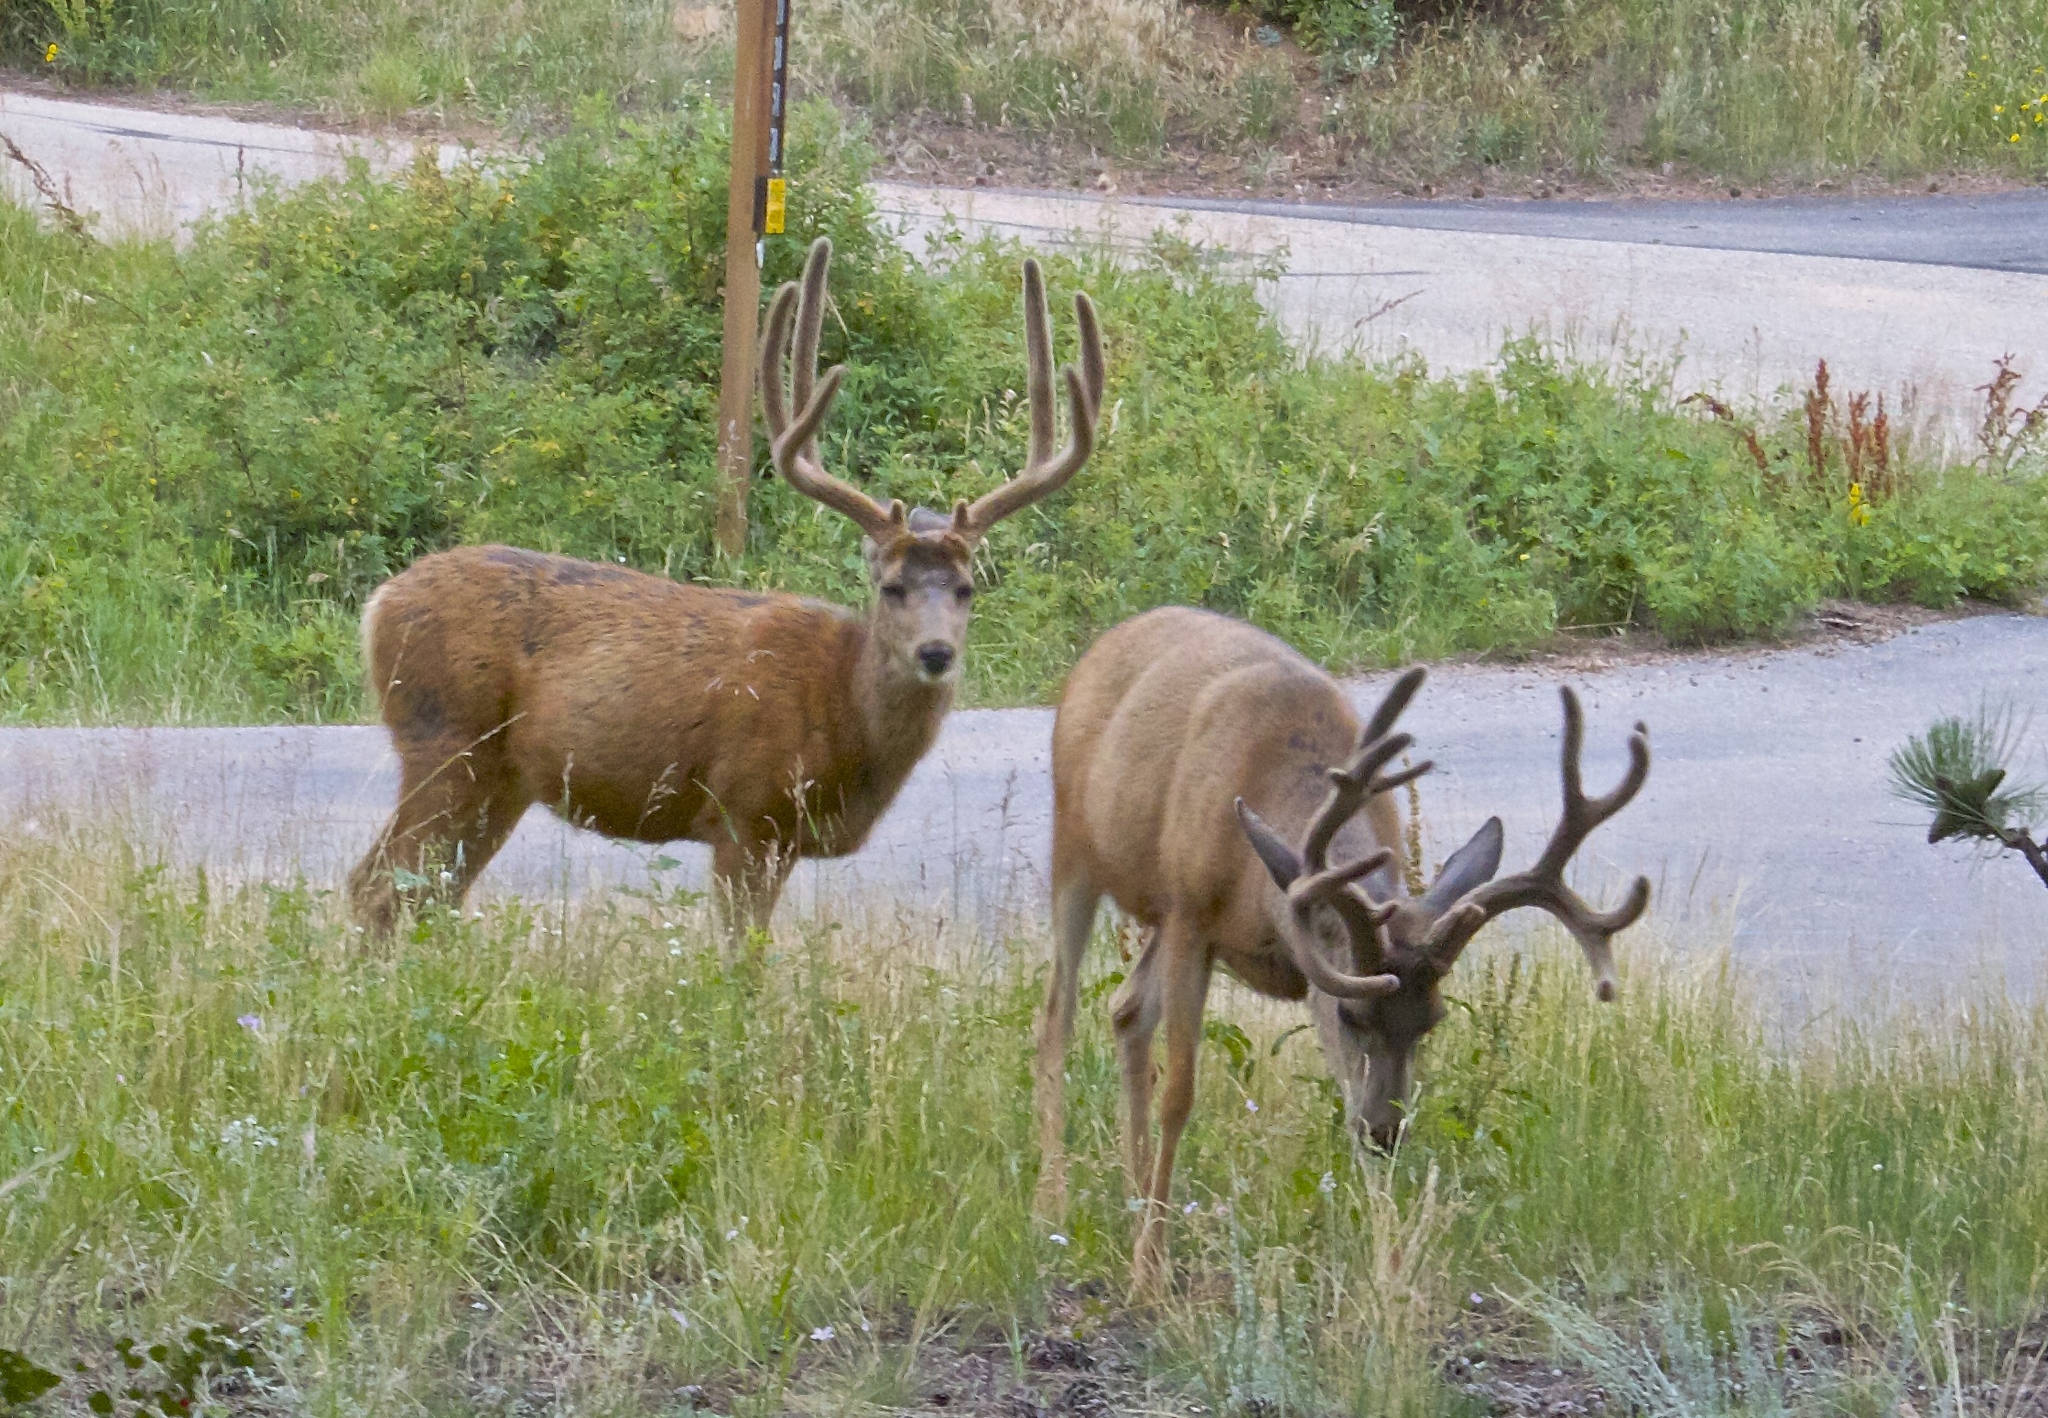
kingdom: Animalia
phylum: Chordata
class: Mammalia
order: Artiodactyla
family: Cervidae
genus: Odocoileus
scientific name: Odocoileus hemionus
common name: Mule deer
